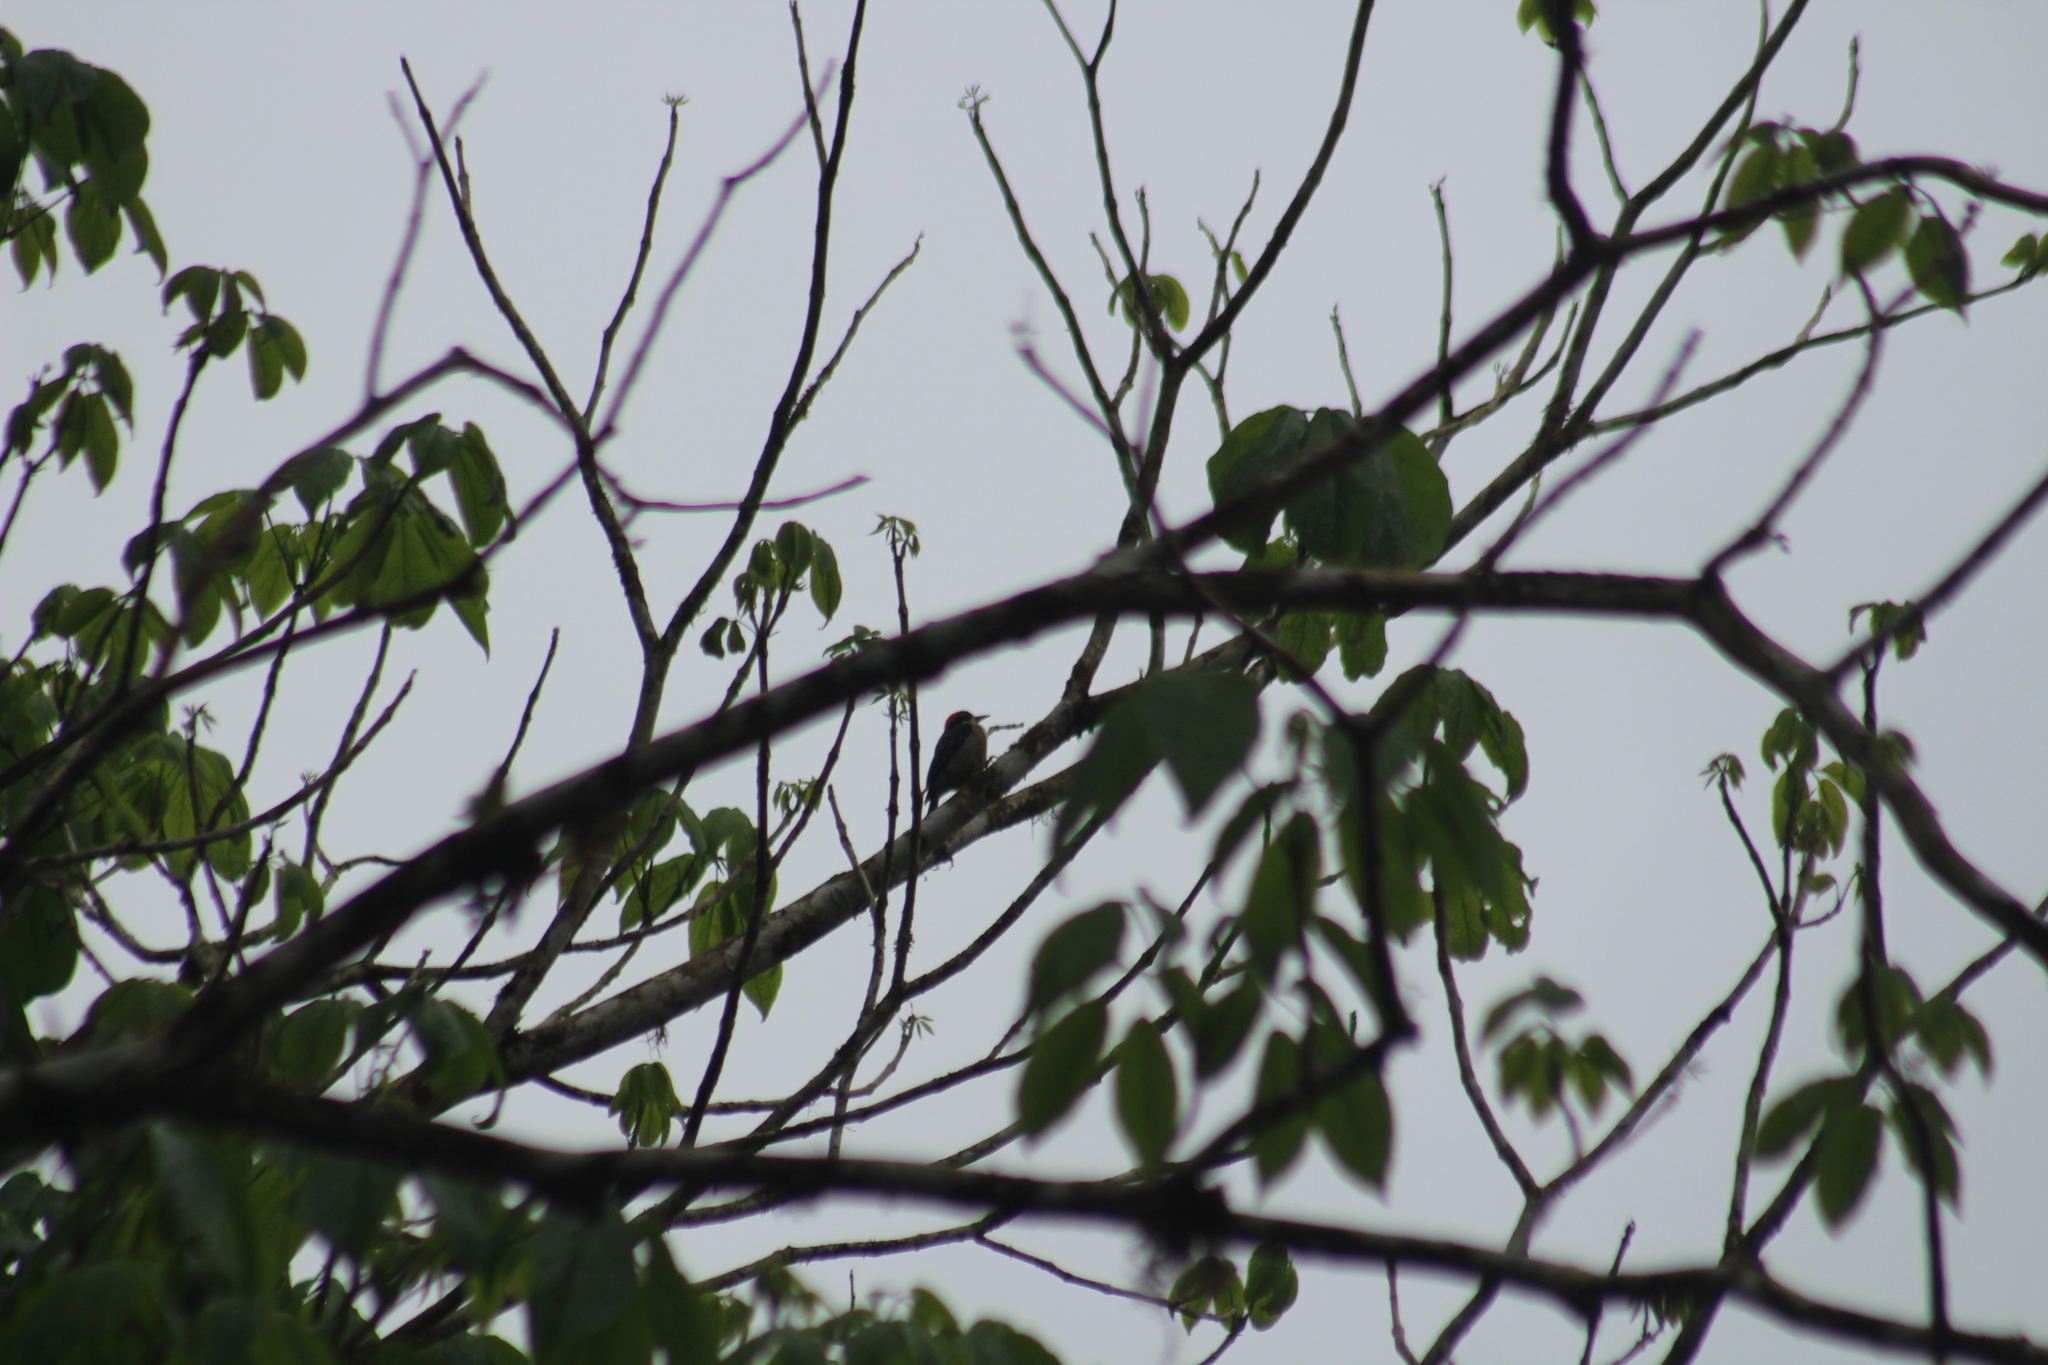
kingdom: Animalia
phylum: Chordata
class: Aves
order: Piciformes
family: Picidae
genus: Melanerpes
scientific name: Melanerpes pucherani
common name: Black-cheeked woodpecker
